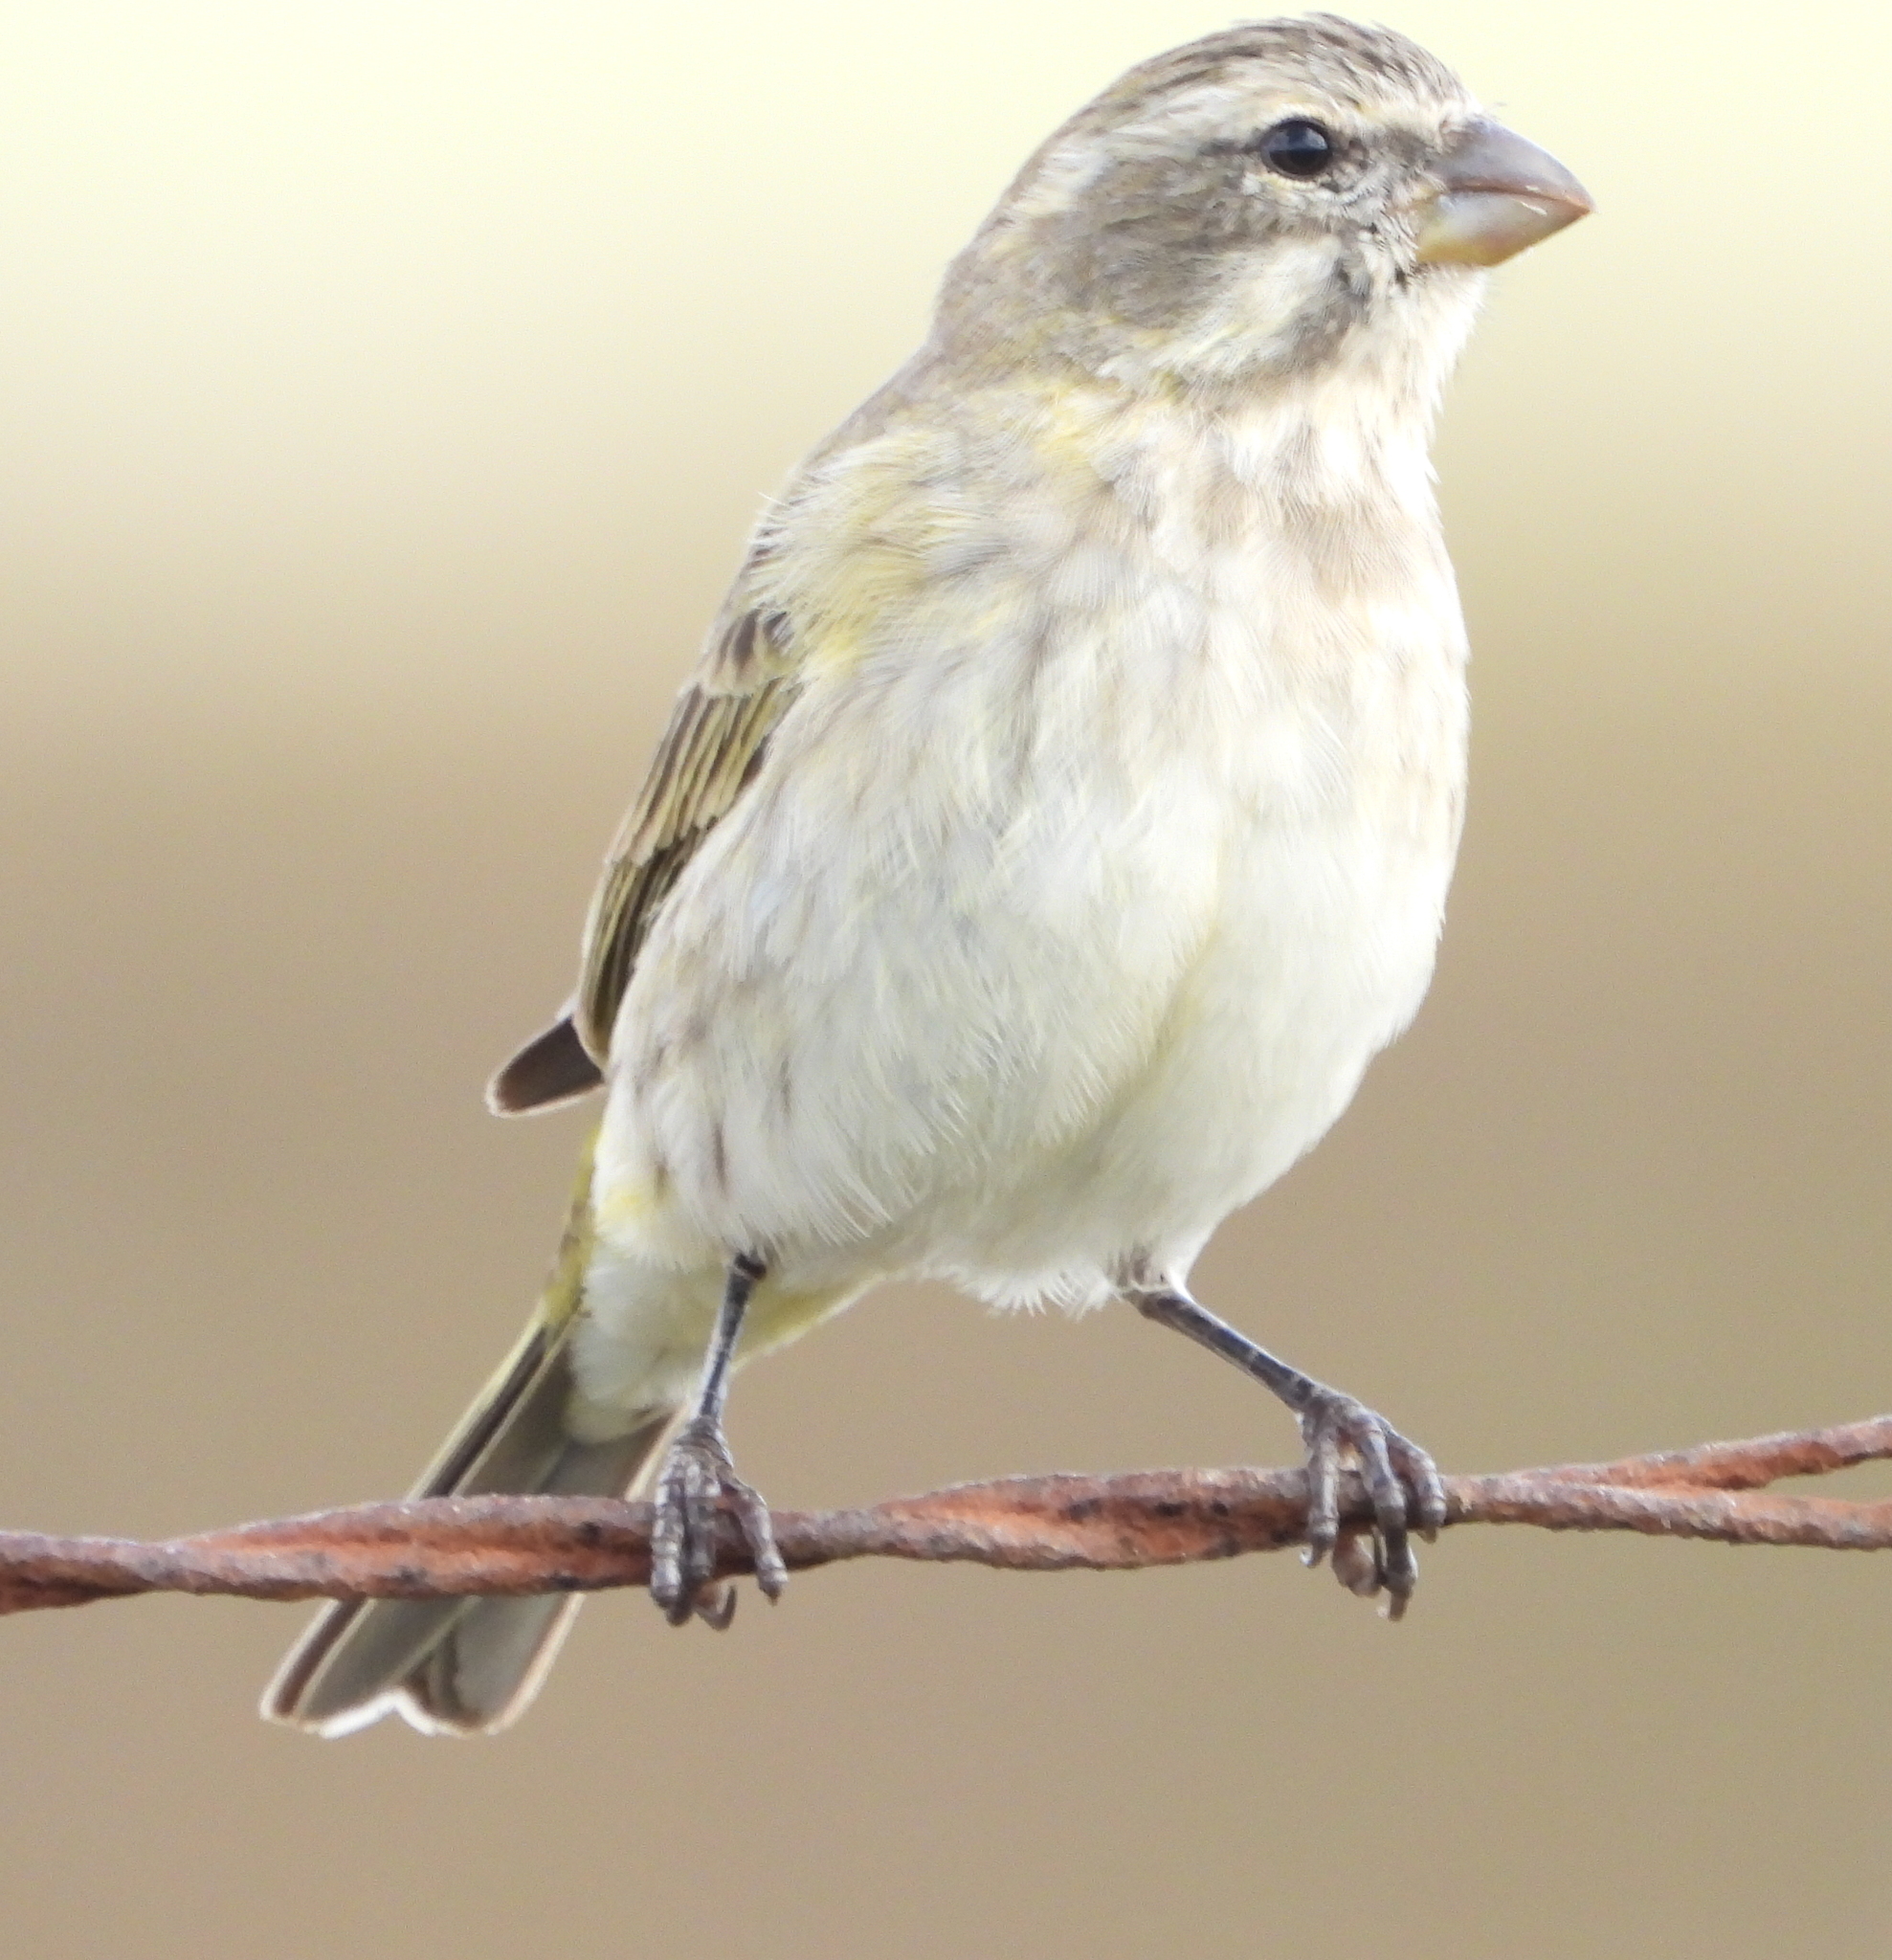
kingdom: Animalia
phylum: Chordata
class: Aves
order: Passeriformes
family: Fringillidae
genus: Crithagra
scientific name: Crithagra flaviventris
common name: Yellow canary
